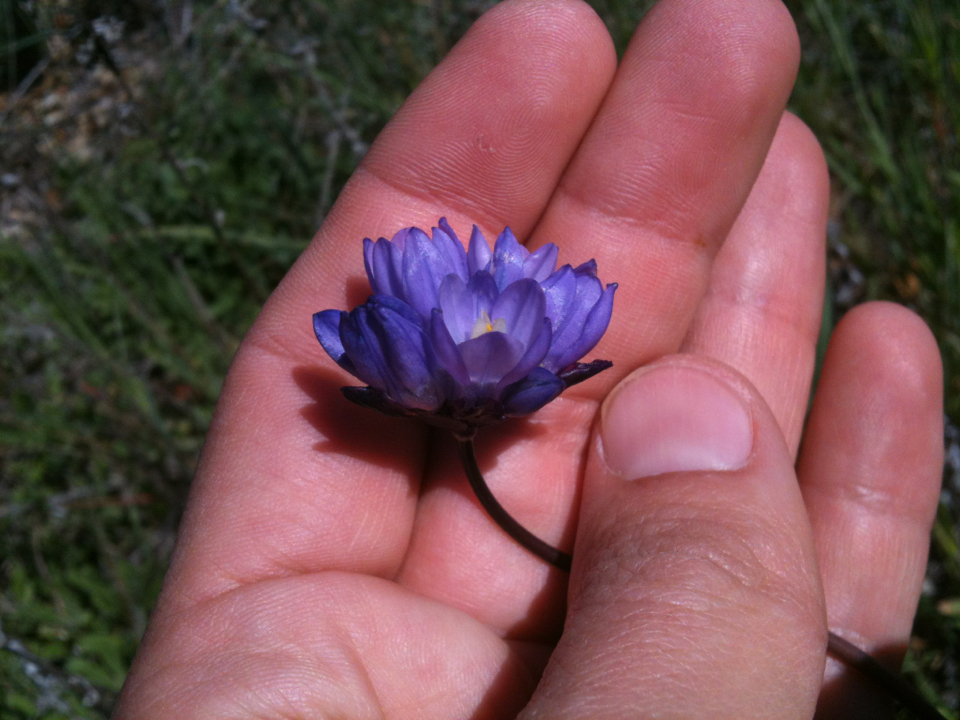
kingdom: Plantae
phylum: Tracheophyta
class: Liliopsida
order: Asparagales
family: Asparagaceae
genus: Dipterostemon
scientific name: Dipterostemon capitatus
